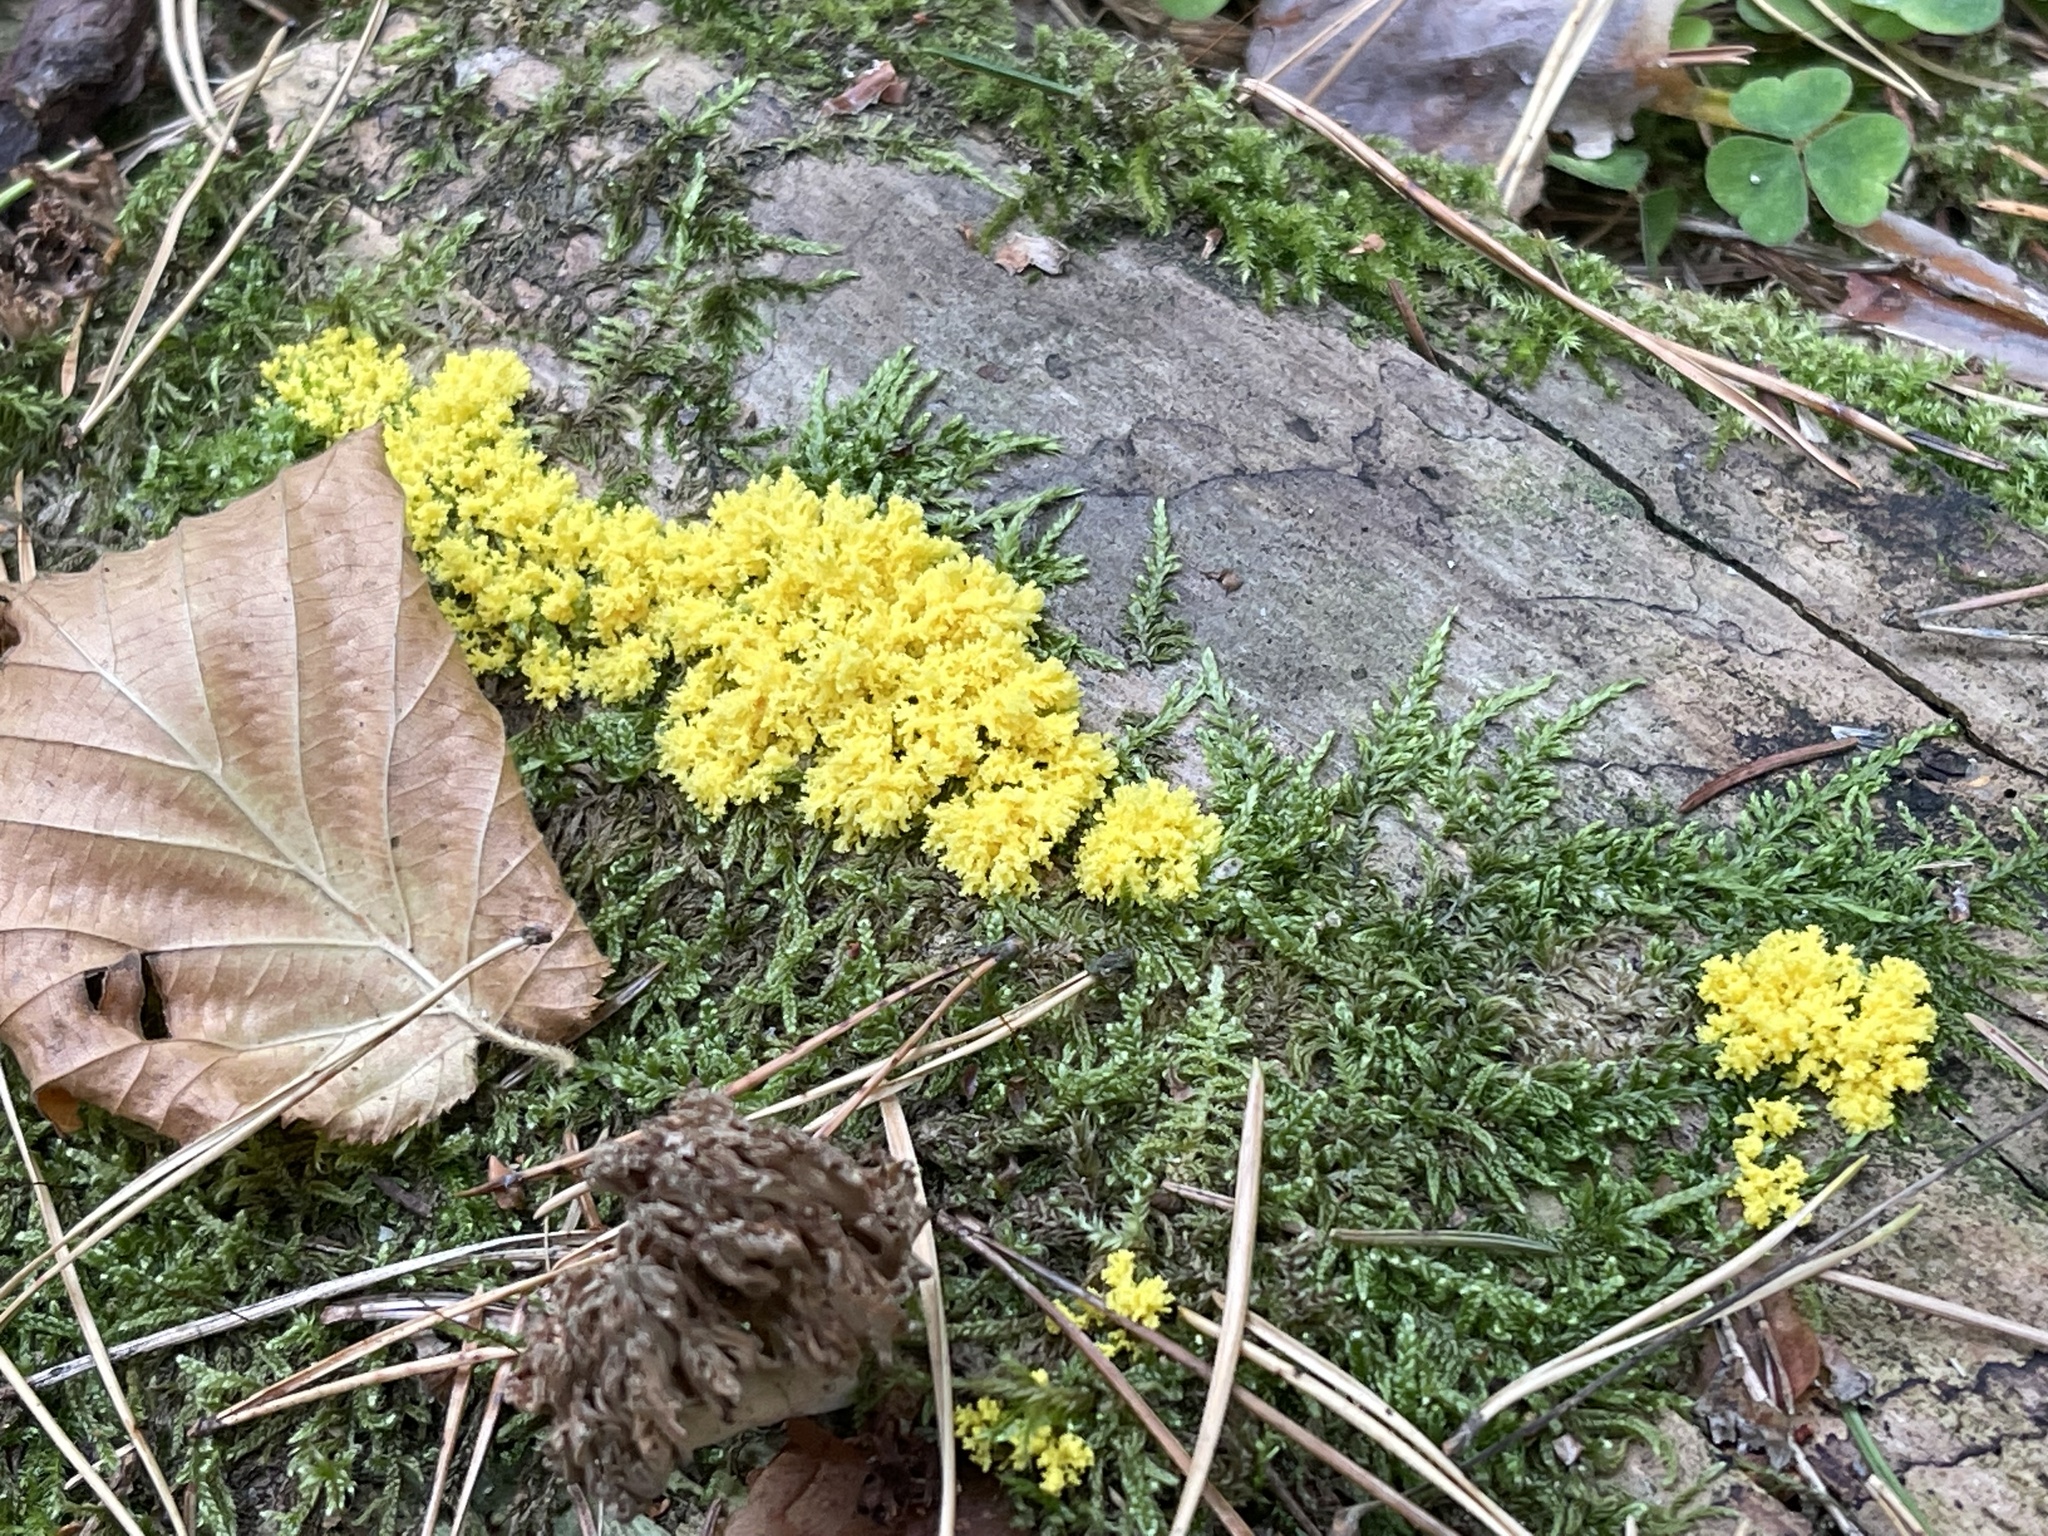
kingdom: Protozoa
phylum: Mycetozoa
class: Myxomycetes
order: Physarales
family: Physaraceae
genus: Fuligo
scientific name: Fuligo septica
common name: Dog vomit slime mold
